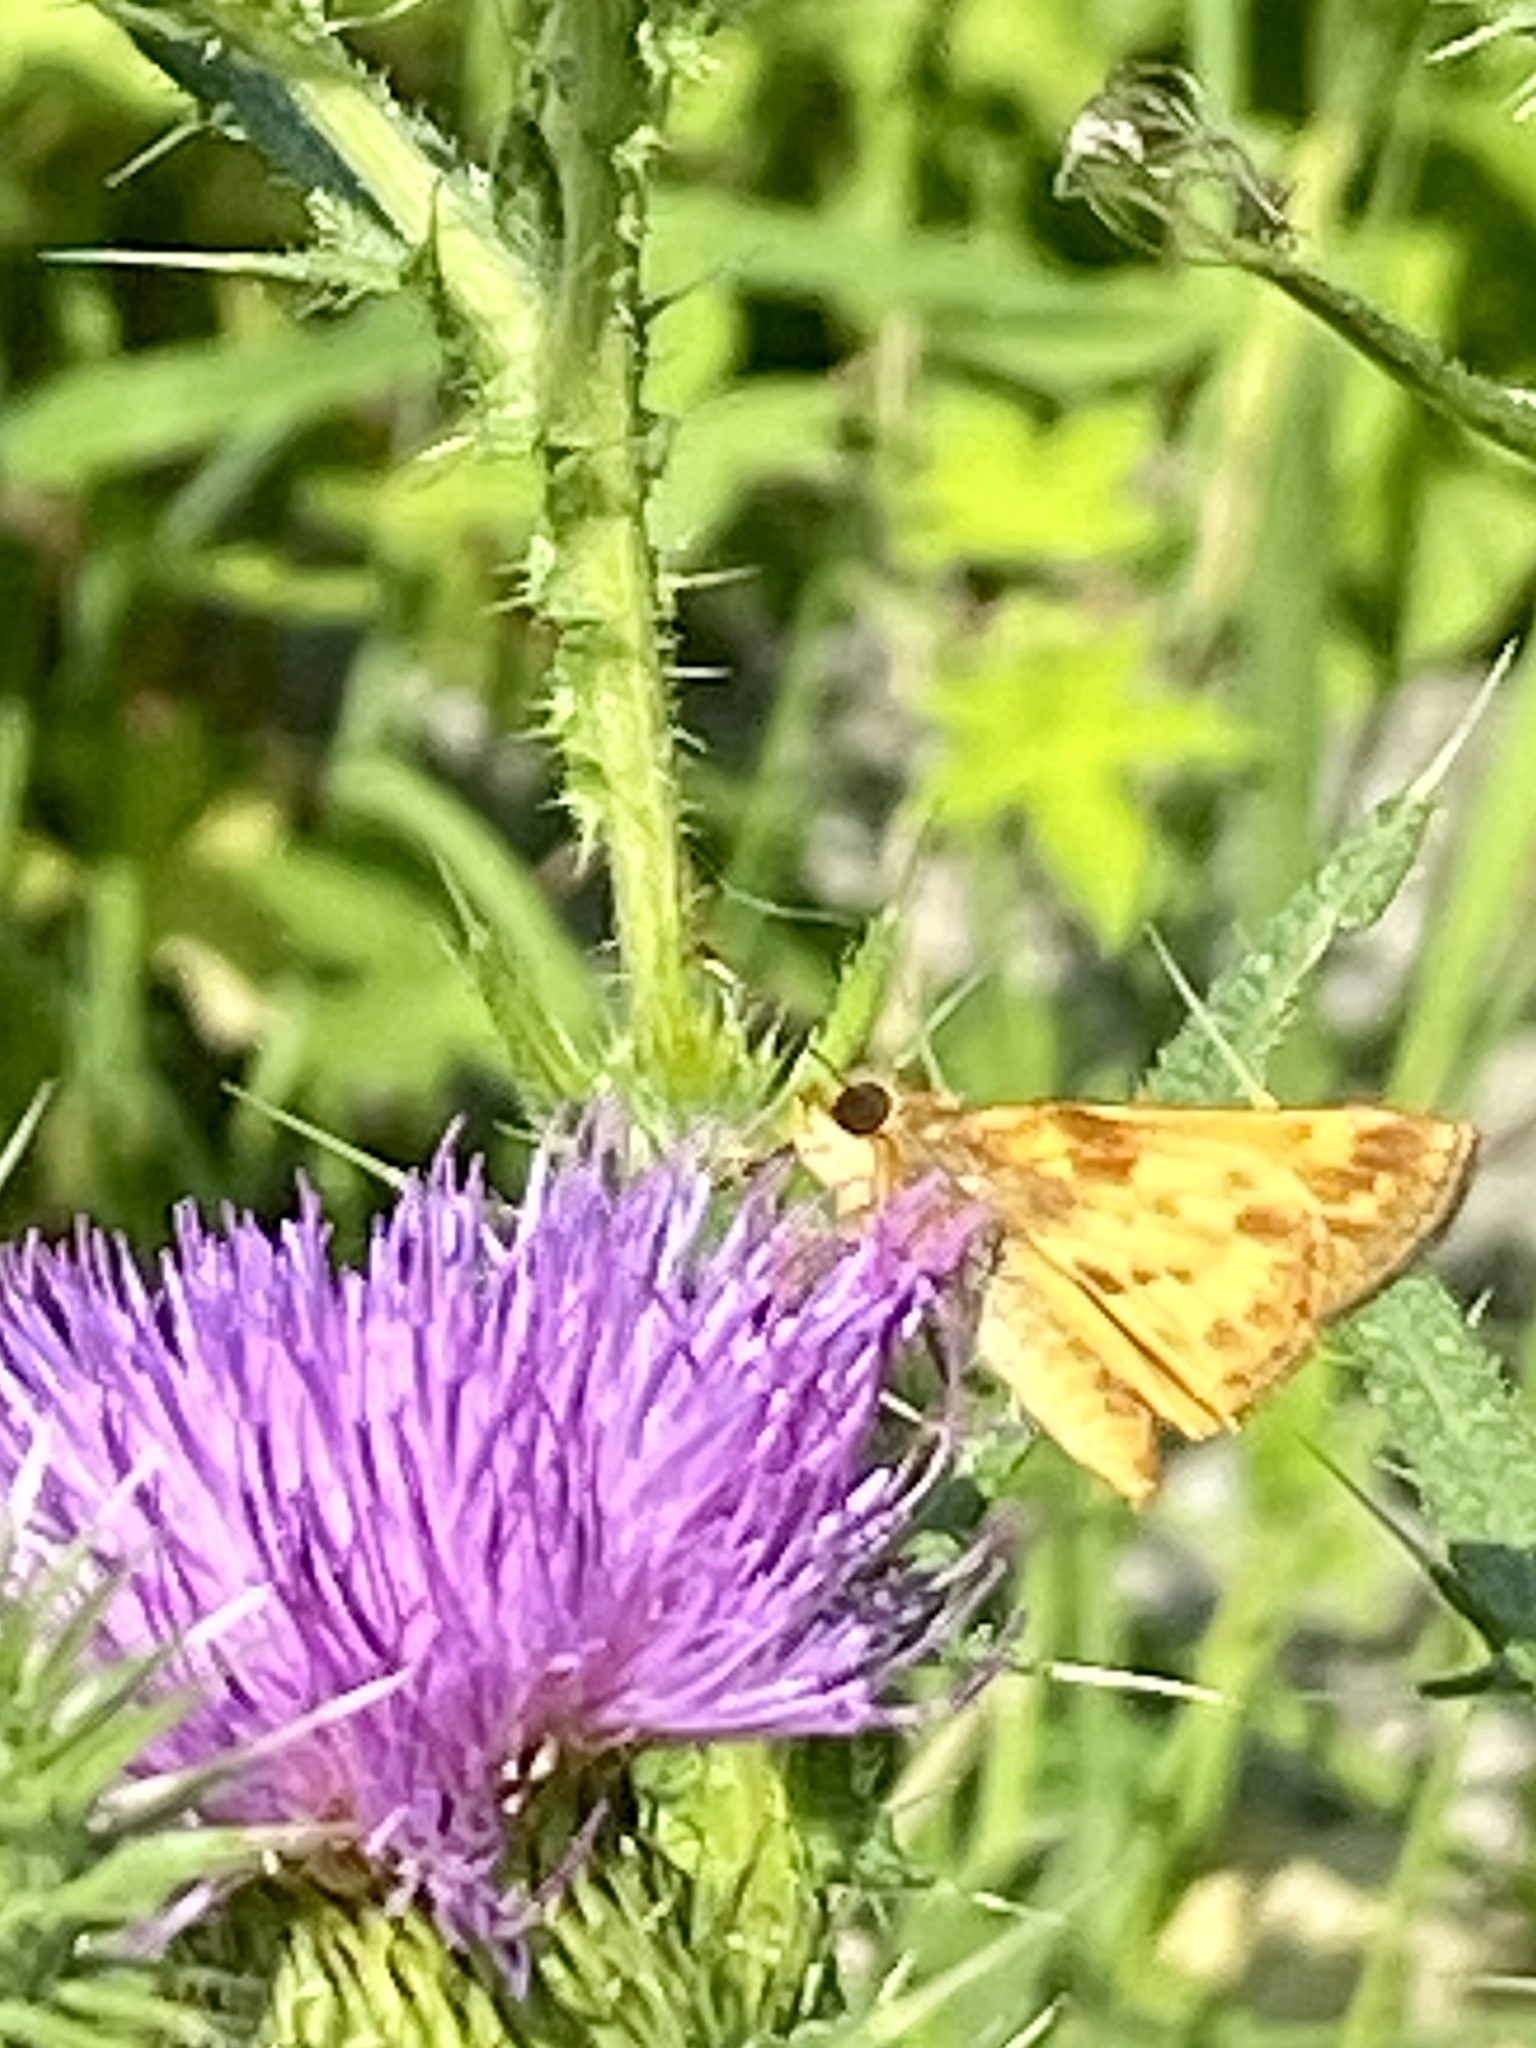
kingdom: Animalia
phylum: Arthropoda
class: Insecta
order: Lepidoptera
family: Hesperiidae
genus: Lon
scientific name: Lon zabulon
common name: Zabulon skipper
